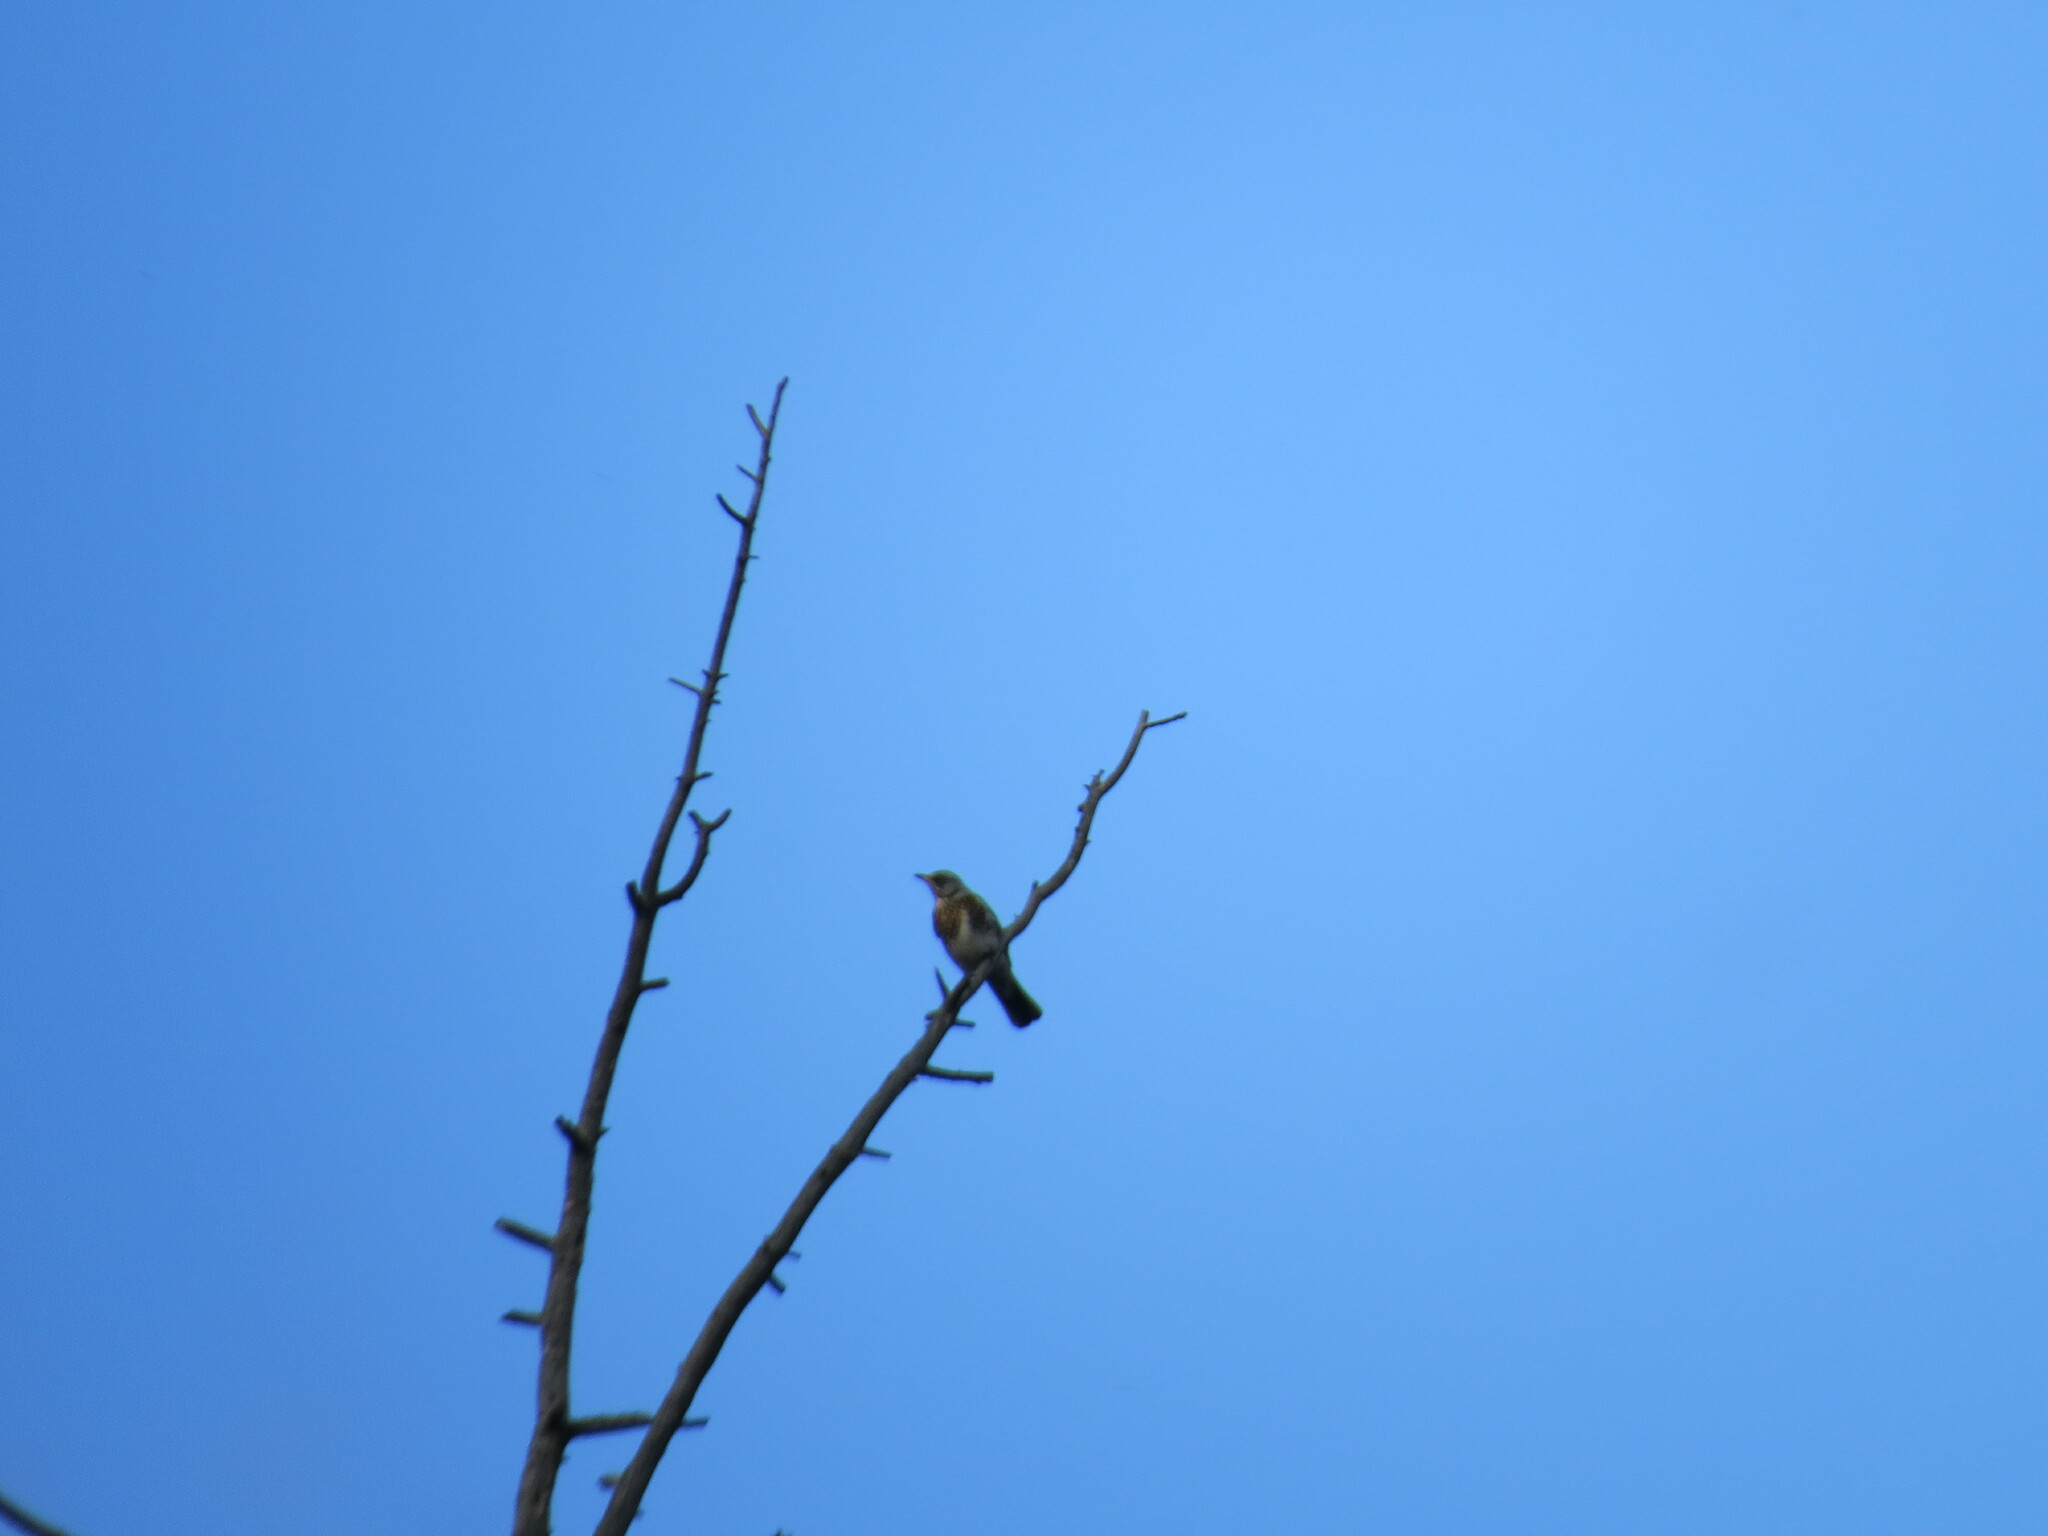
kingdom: Animalia
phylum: Chordata
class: Aves
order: Passeriformes
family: Turdidae
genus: Turdus
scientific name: Turdus pilaris
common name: Fieldfare
